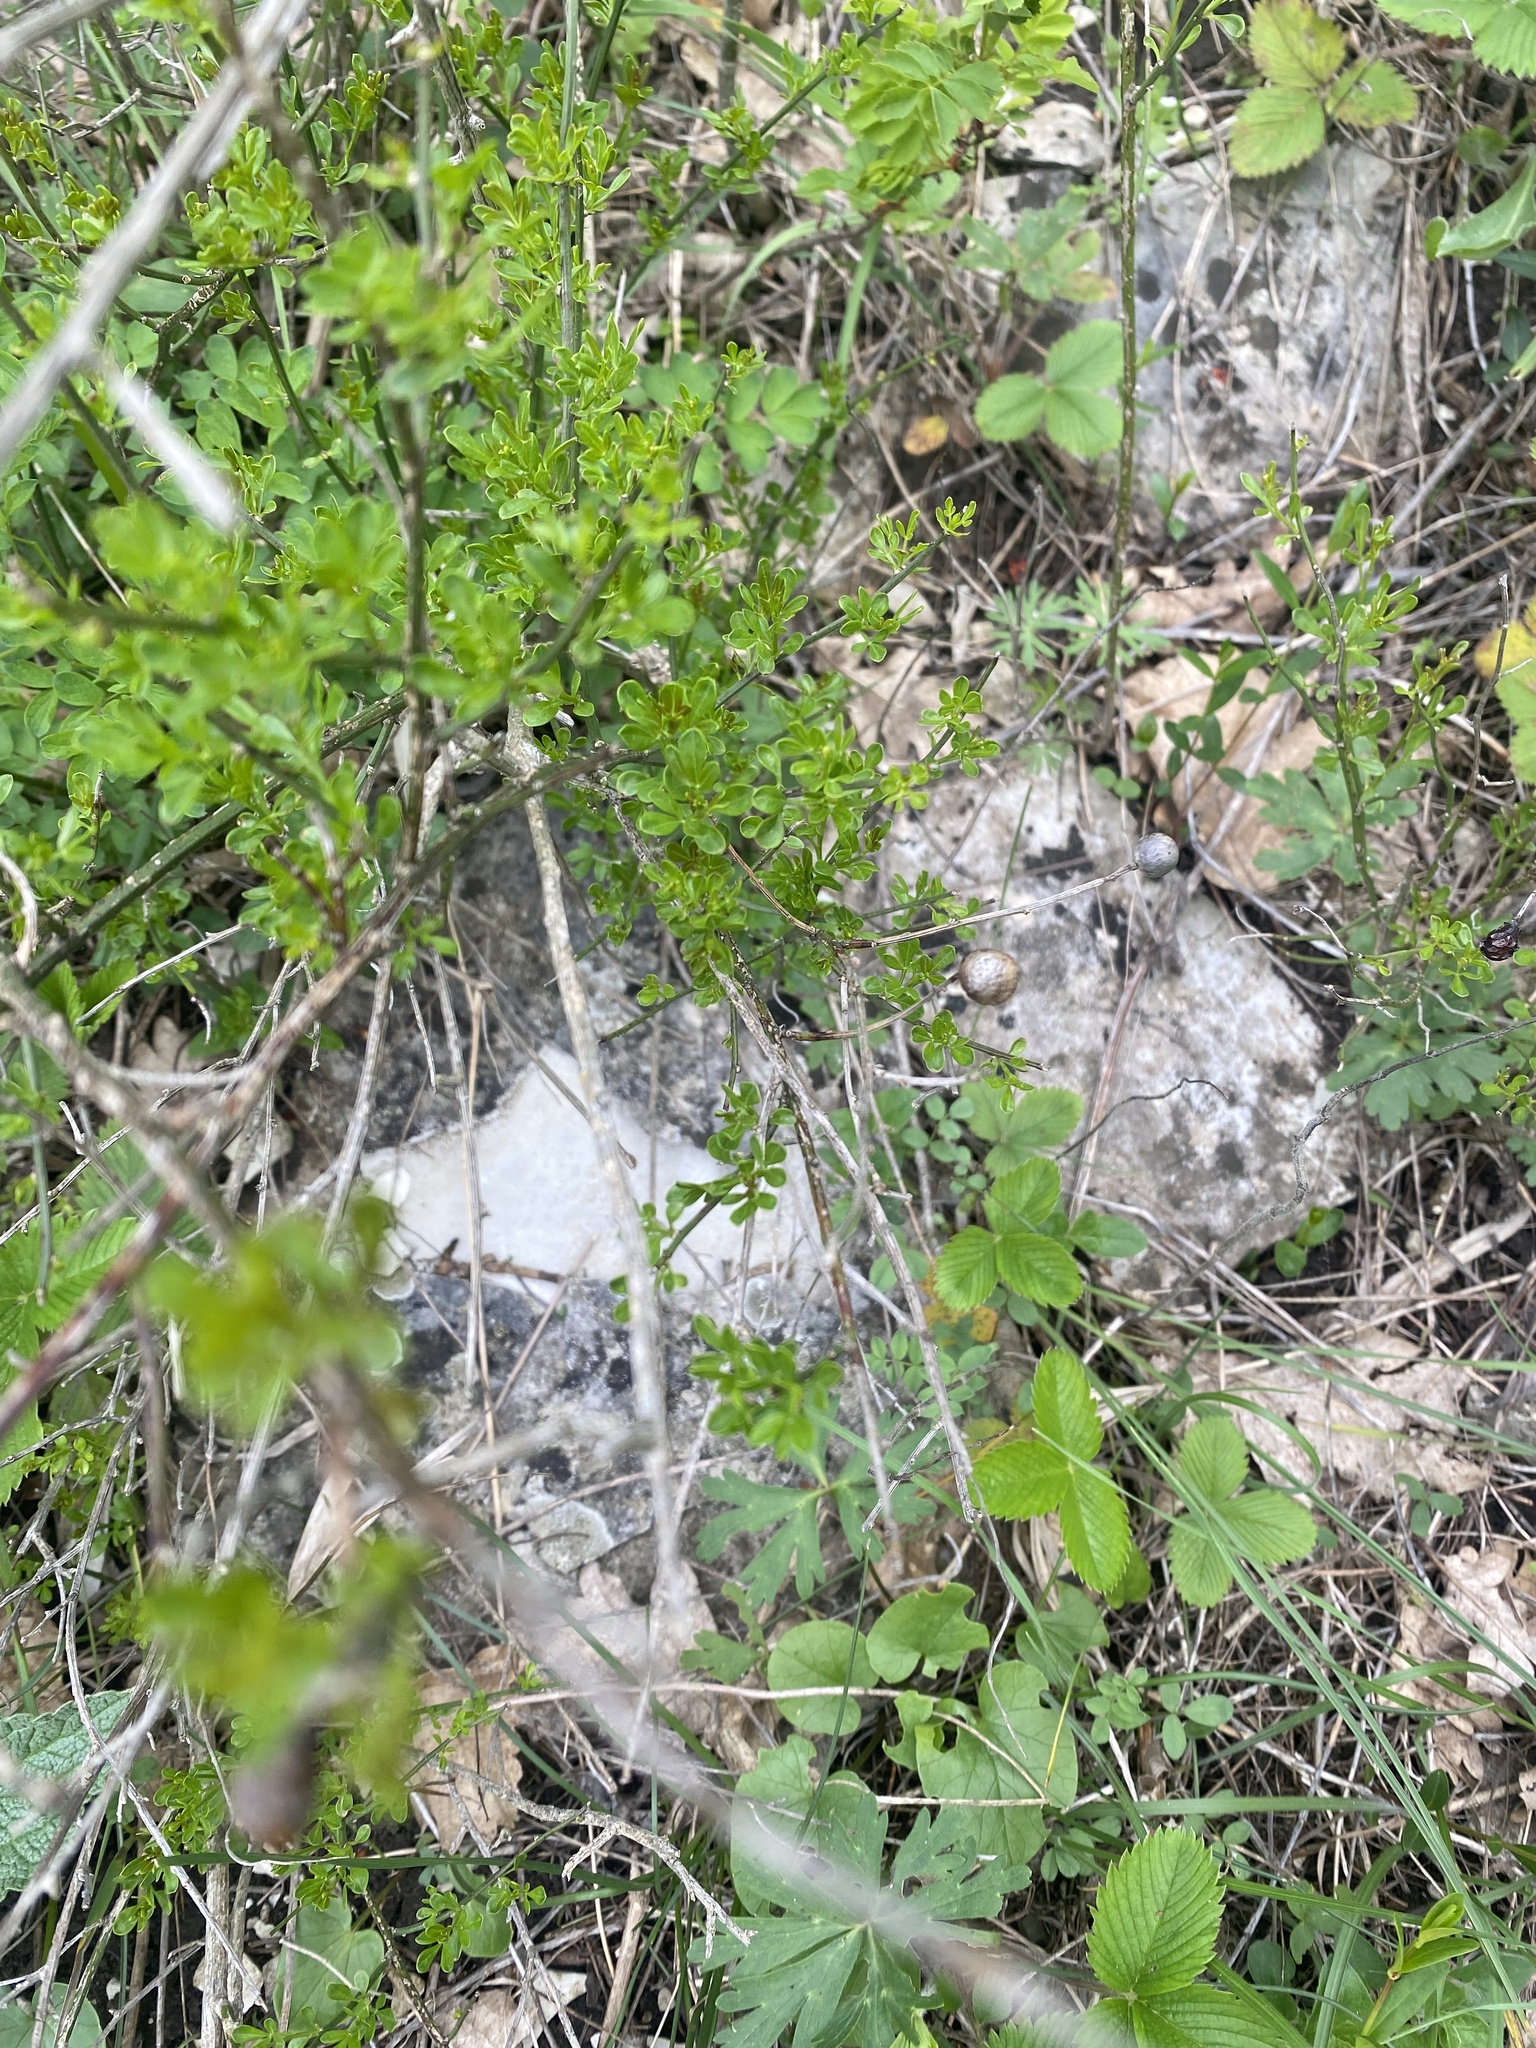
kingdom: Plantae
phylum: Tracheophyta
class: Magnoliopsida
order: Lamiales
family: Oleaceae
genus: Chrysojasminum
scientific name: Chrysojasminum fruticans
